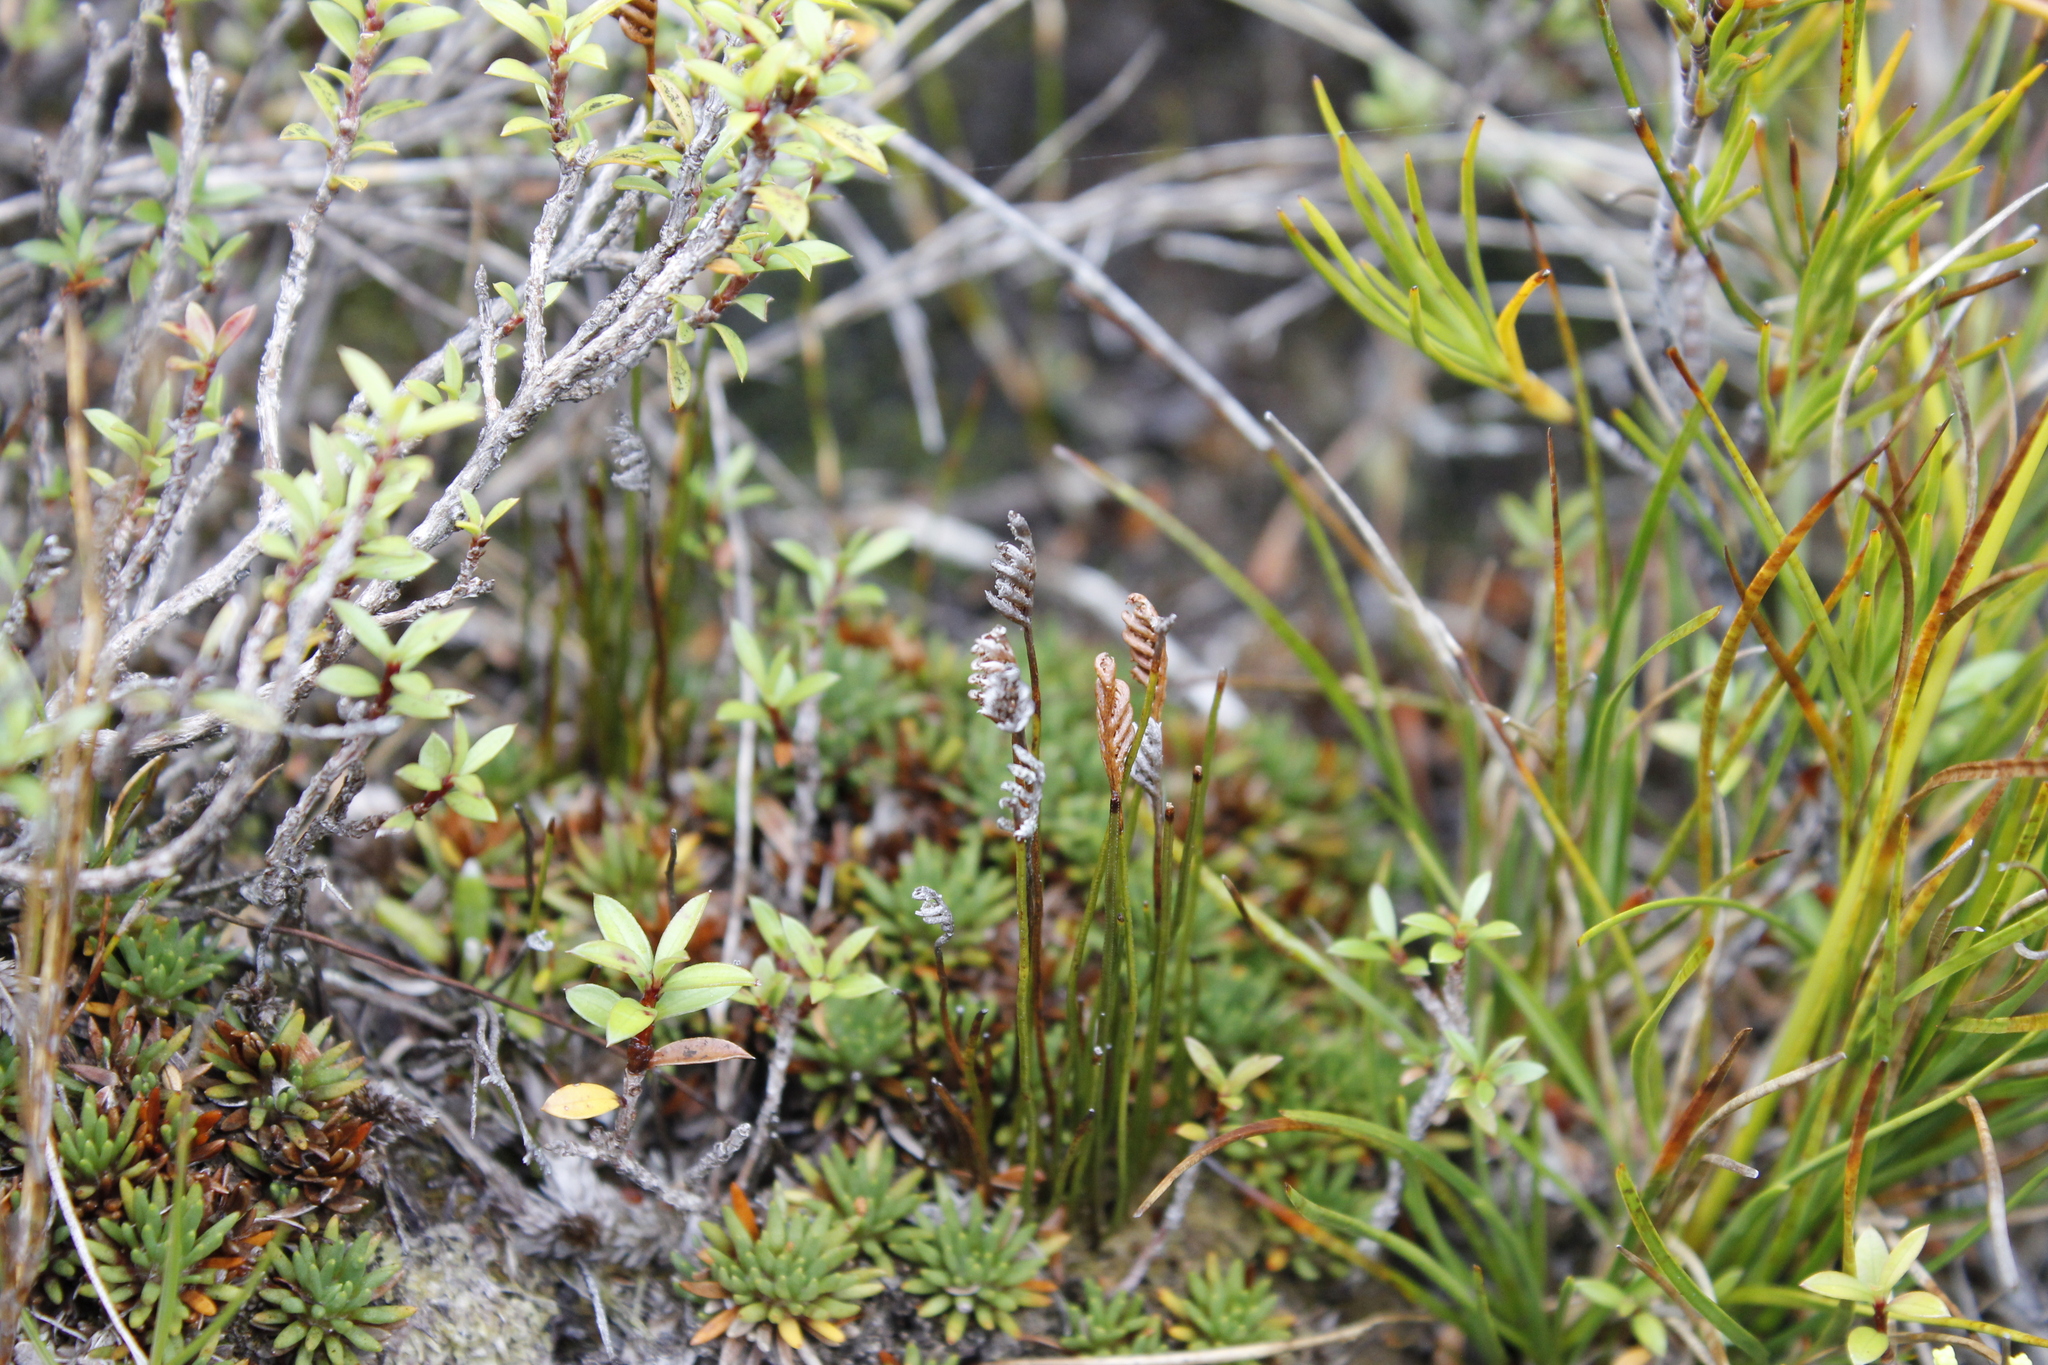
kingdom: Plantae
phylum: Tracheophyta
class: Polypodiopsida
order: Schizaeales
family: Schizaeaceae
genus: Microschizaea
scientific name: Microschizaea australis
